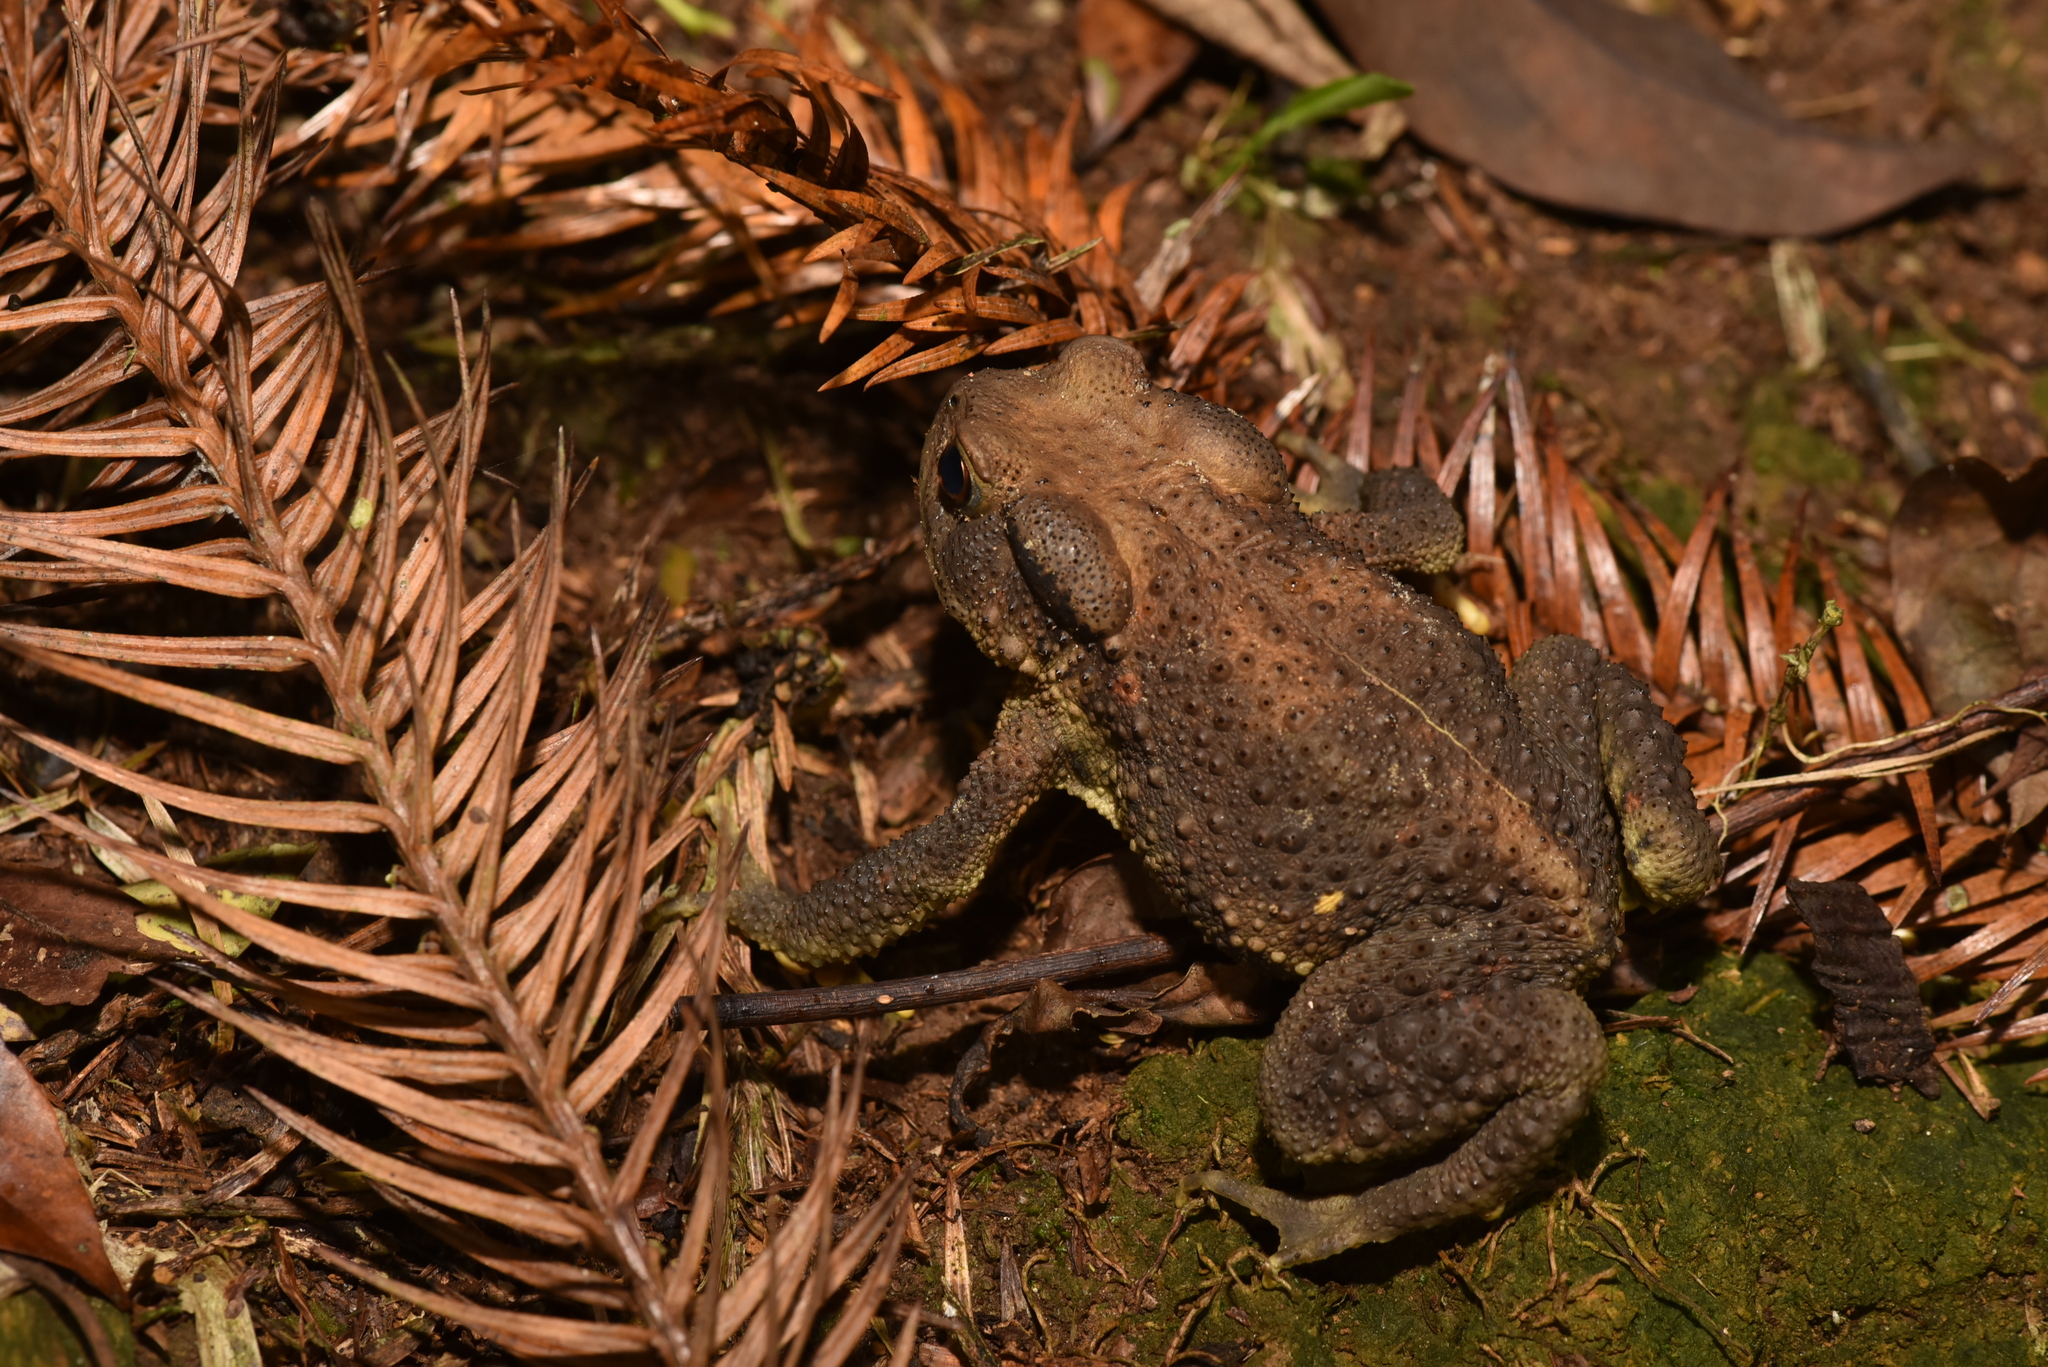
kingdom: Animalia
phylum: Chordata
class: Amphibia
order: Anura
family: Bufonidae
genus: Bufo
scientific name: Bufo bankorensis
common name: Bankor toad
